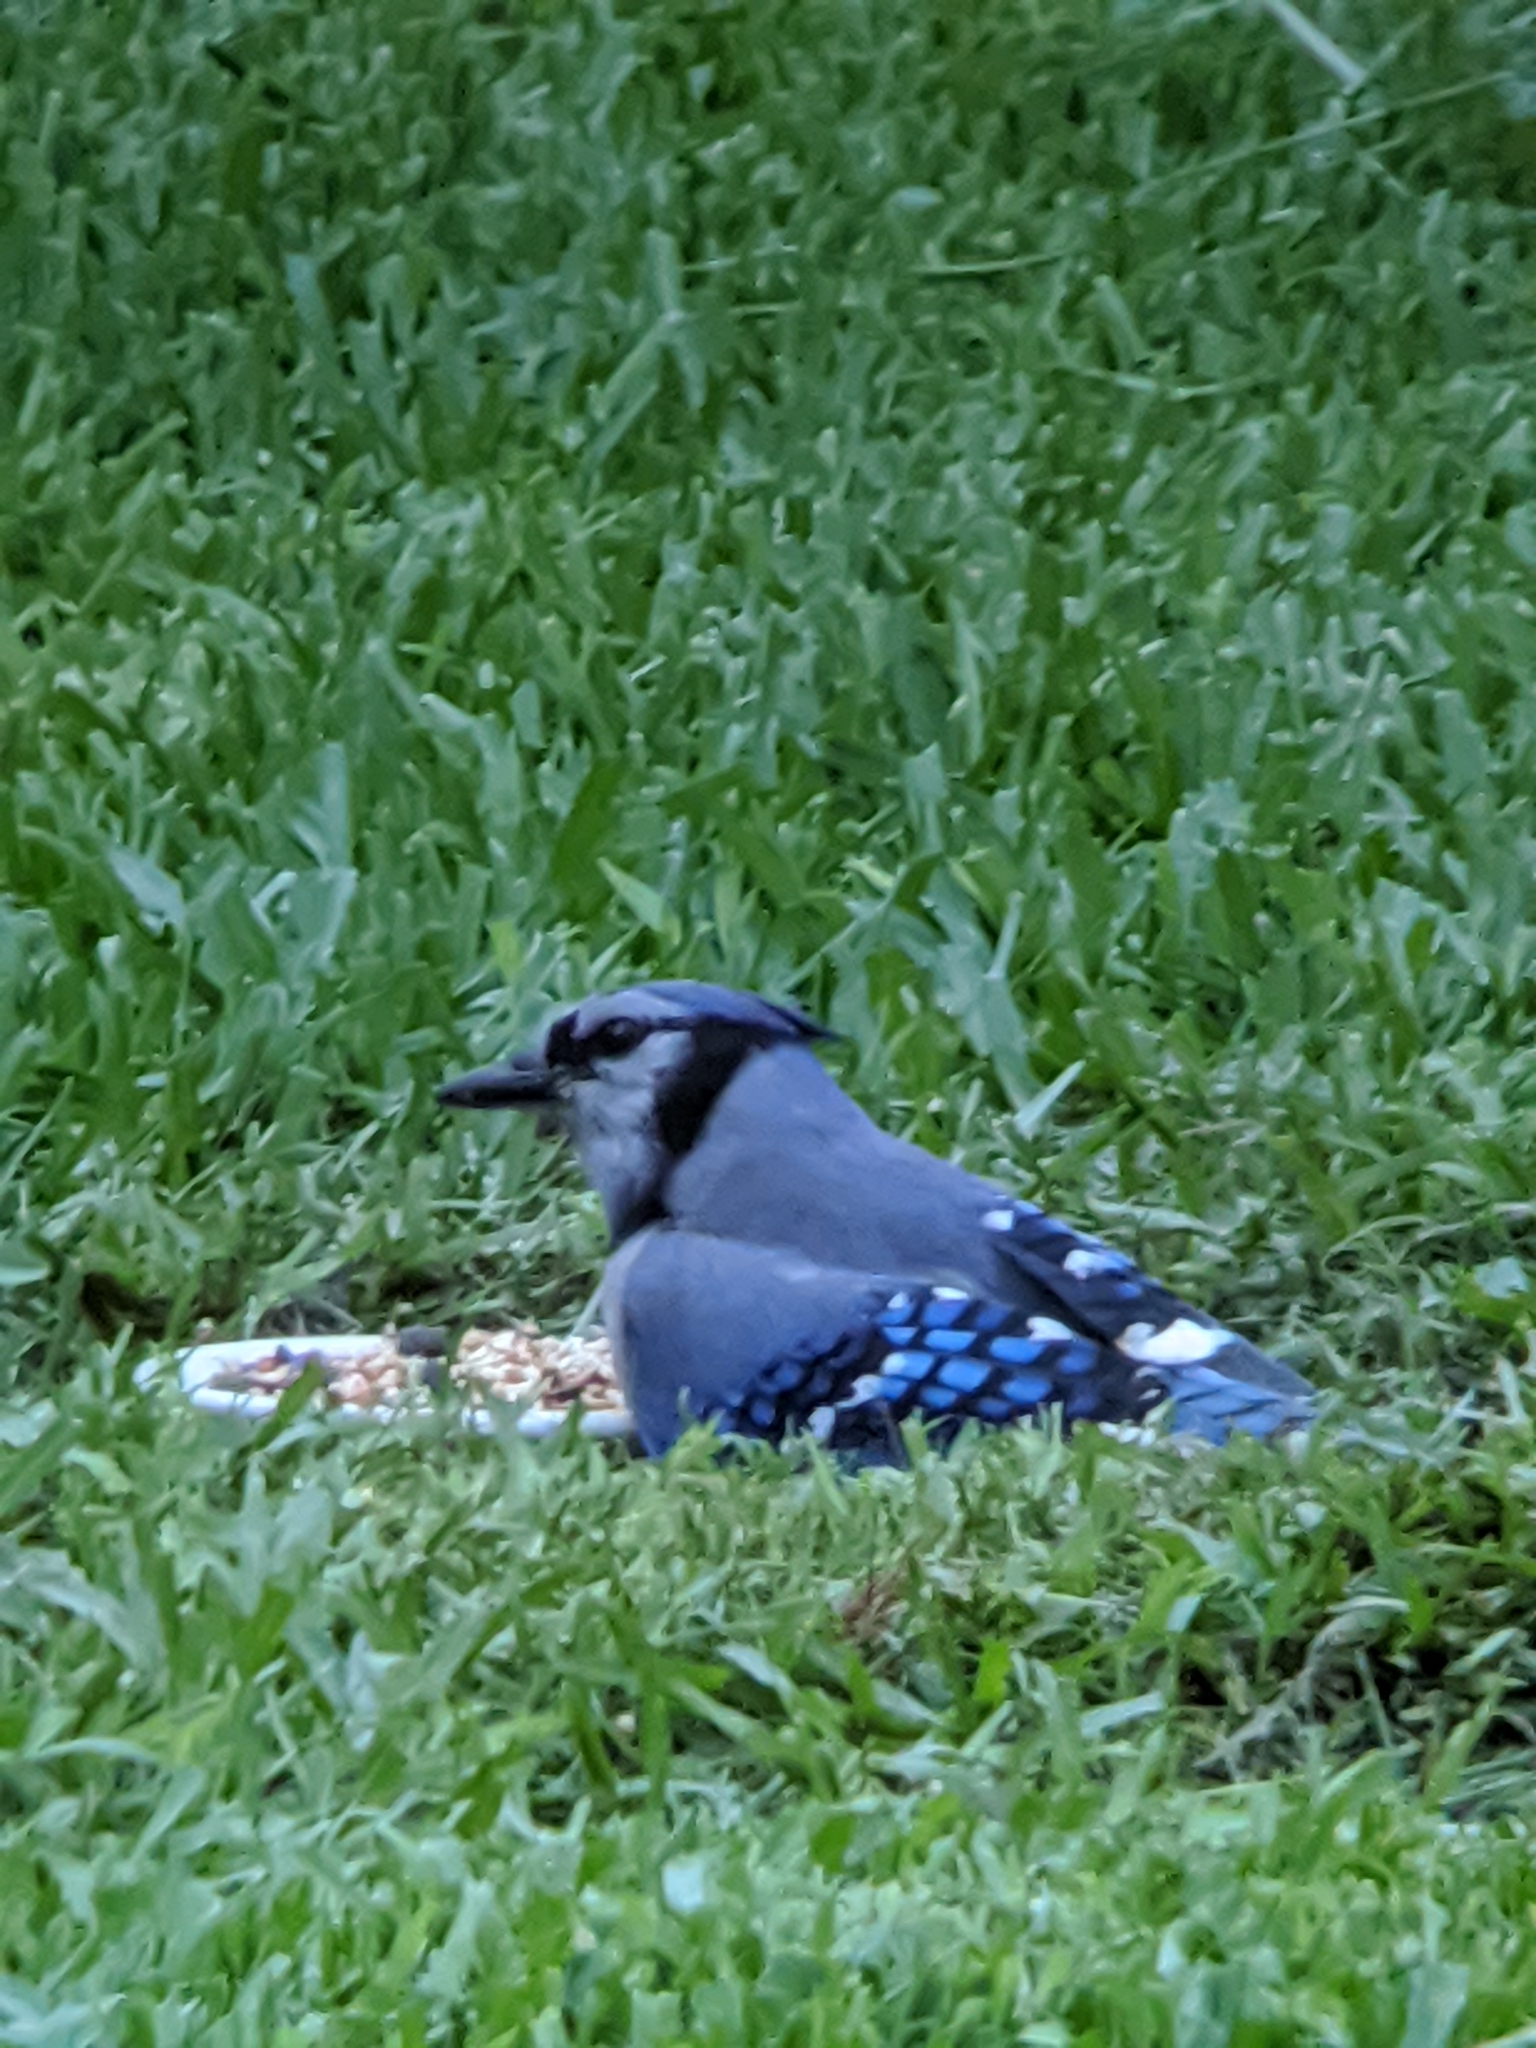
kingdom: Animalia
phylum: Chordata
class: Aves
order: Passeriformes
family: Corvidae
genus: Cyanocitta
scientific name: Cyanocitta cristata
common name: Blue jay
